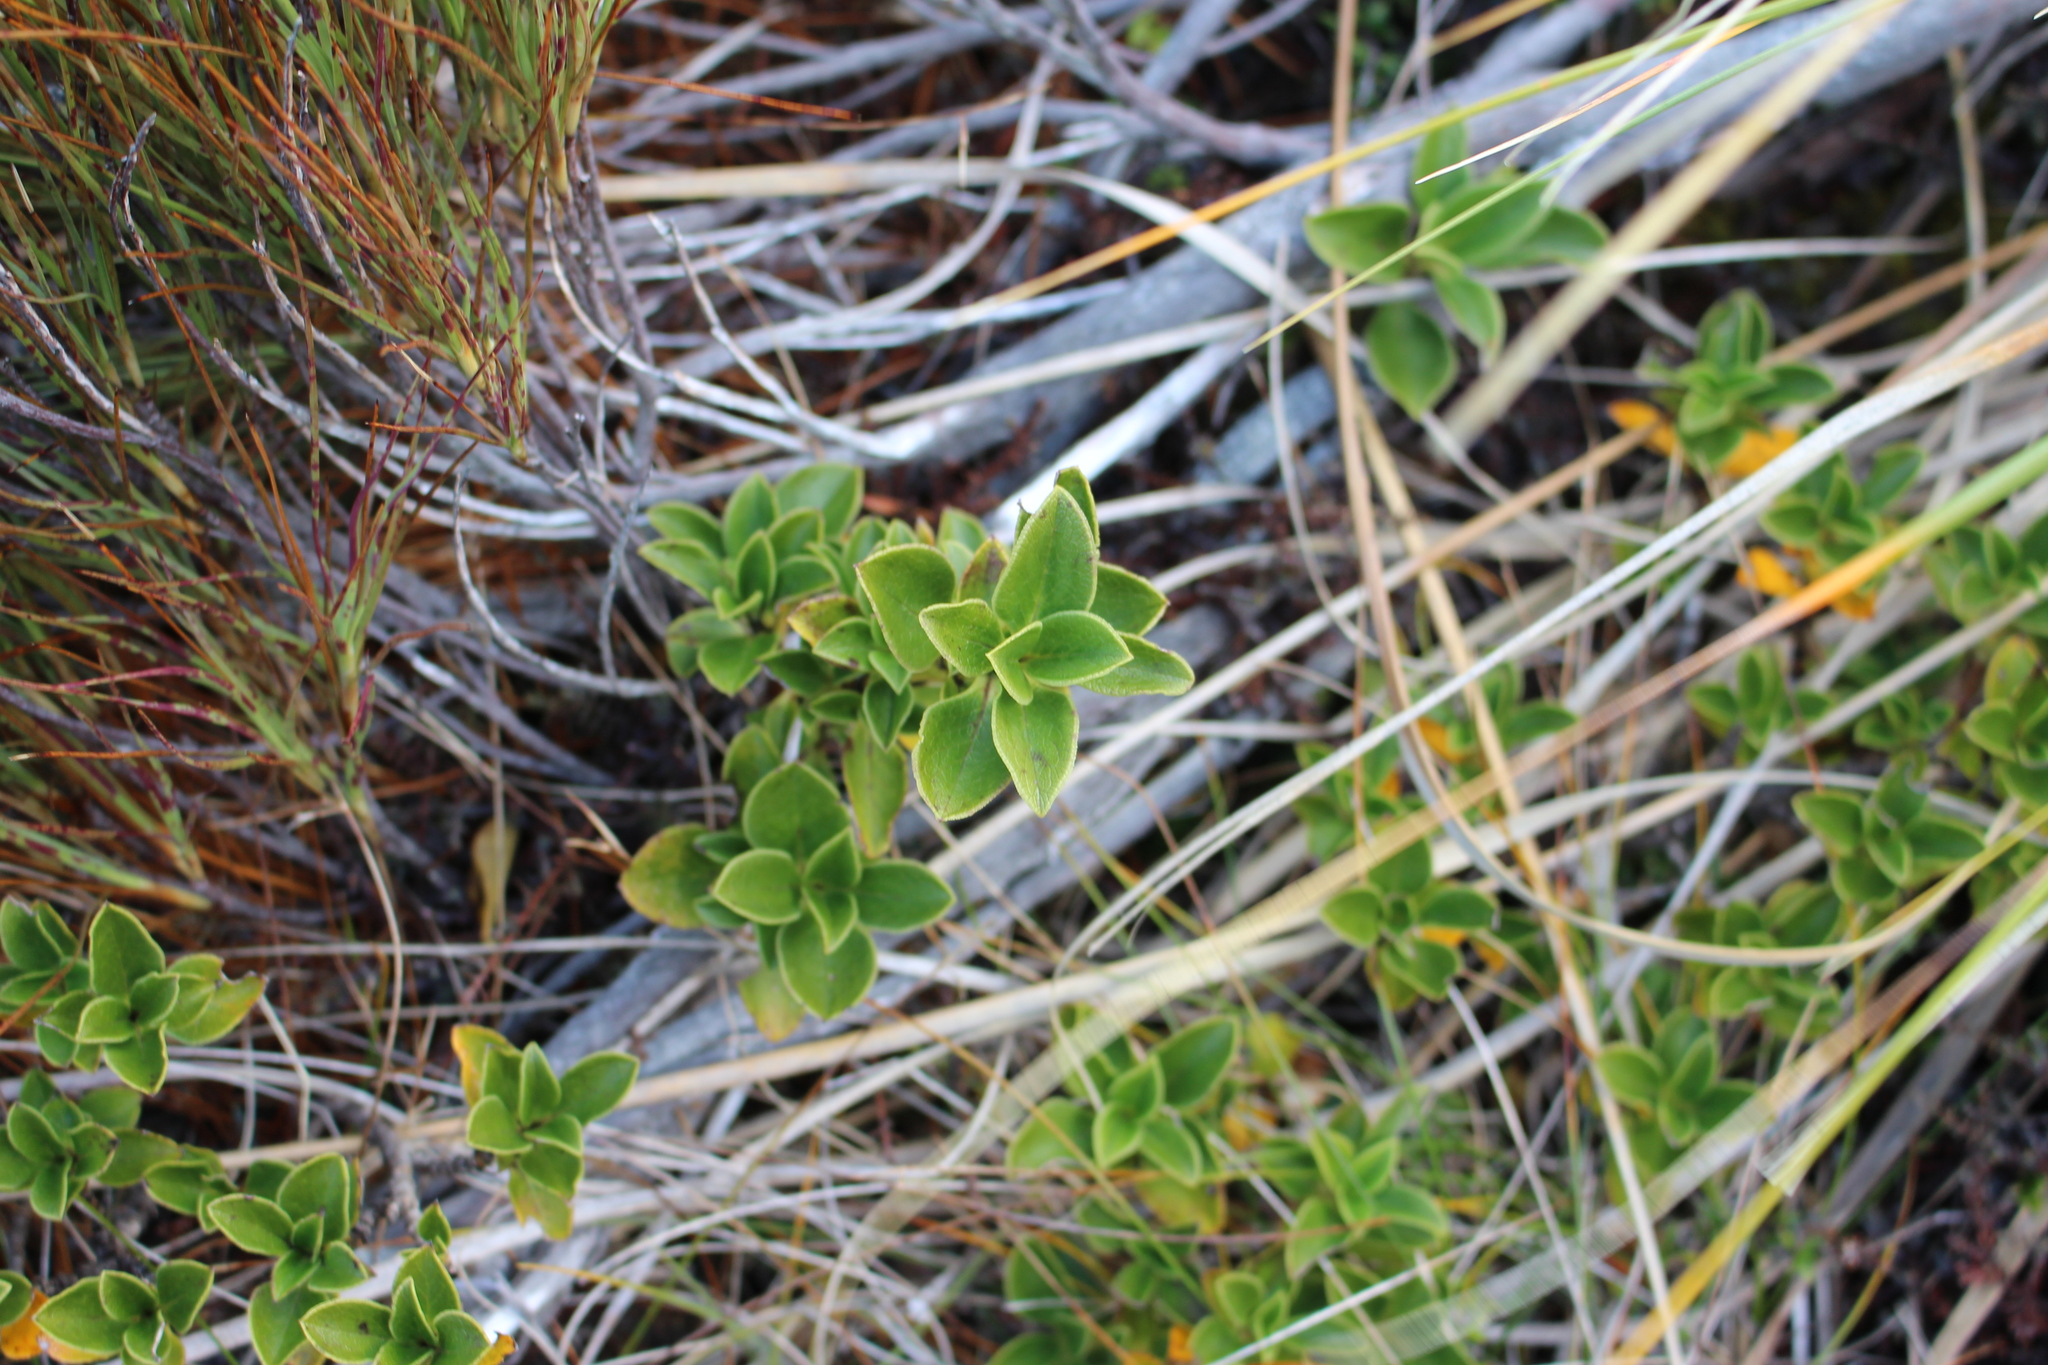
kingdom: Plantae
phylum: Tracheophyta
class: Magnoliopsida
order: Gentianales
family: Rubiaceae
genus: Coprosma
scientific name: Coprosma serrulata
